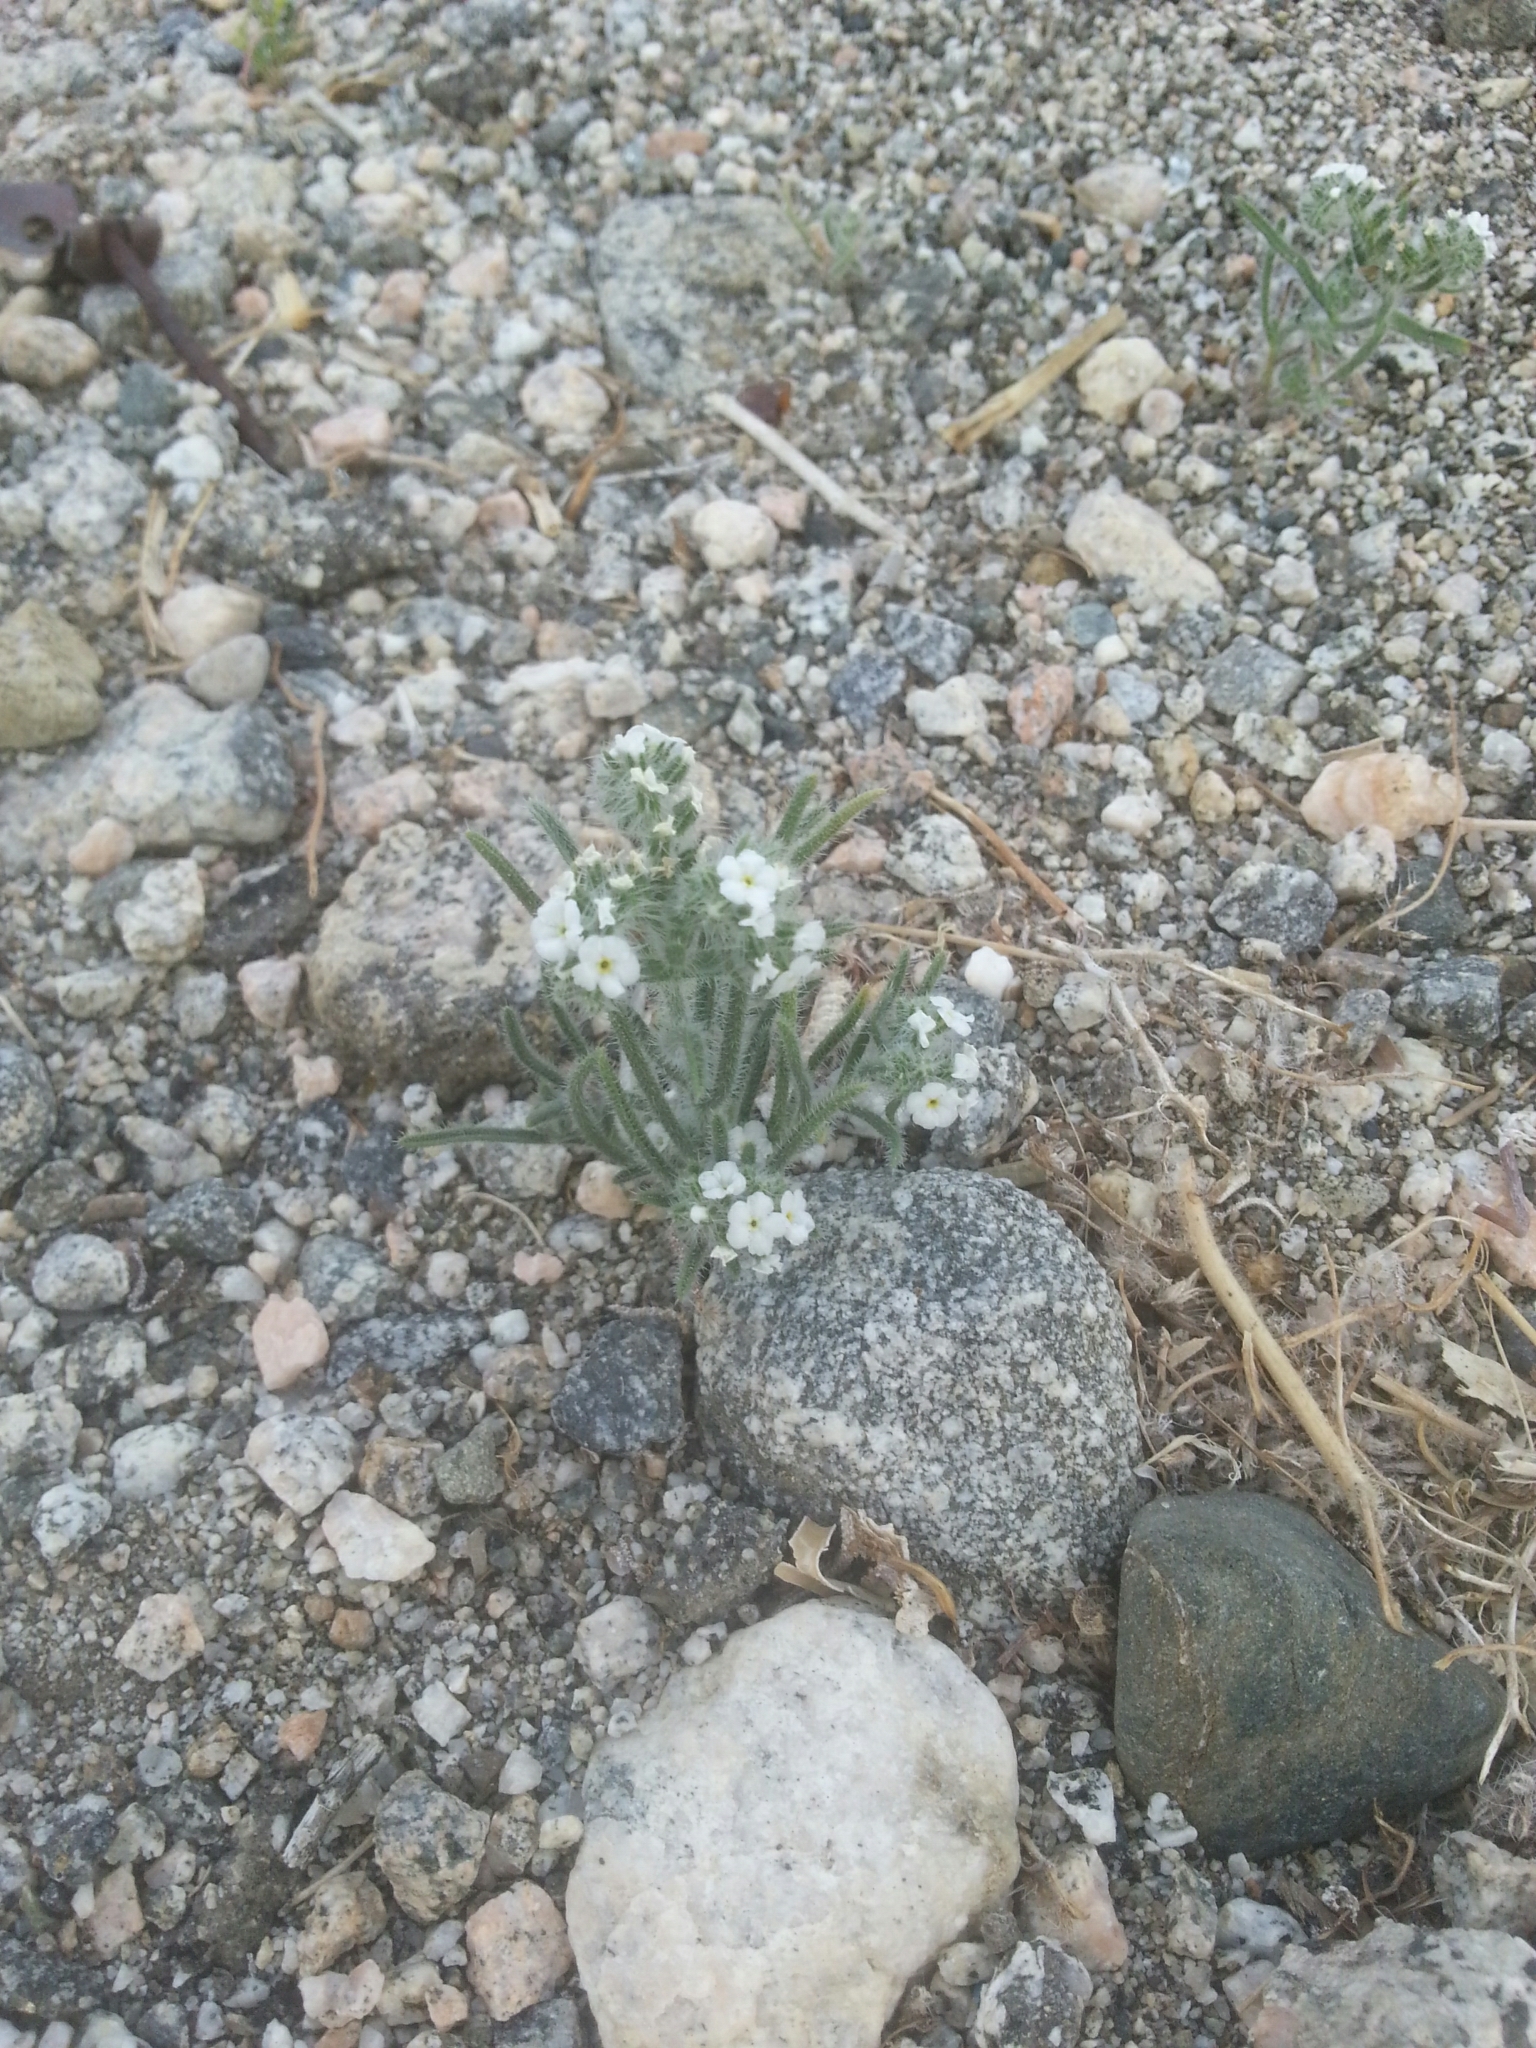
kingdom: Plantae
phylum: Tracheophyta
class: Magnoliopsida
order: Boraginales
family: Boraginaceae
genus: Johnstonella
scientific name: Johnstonella angustifolia
